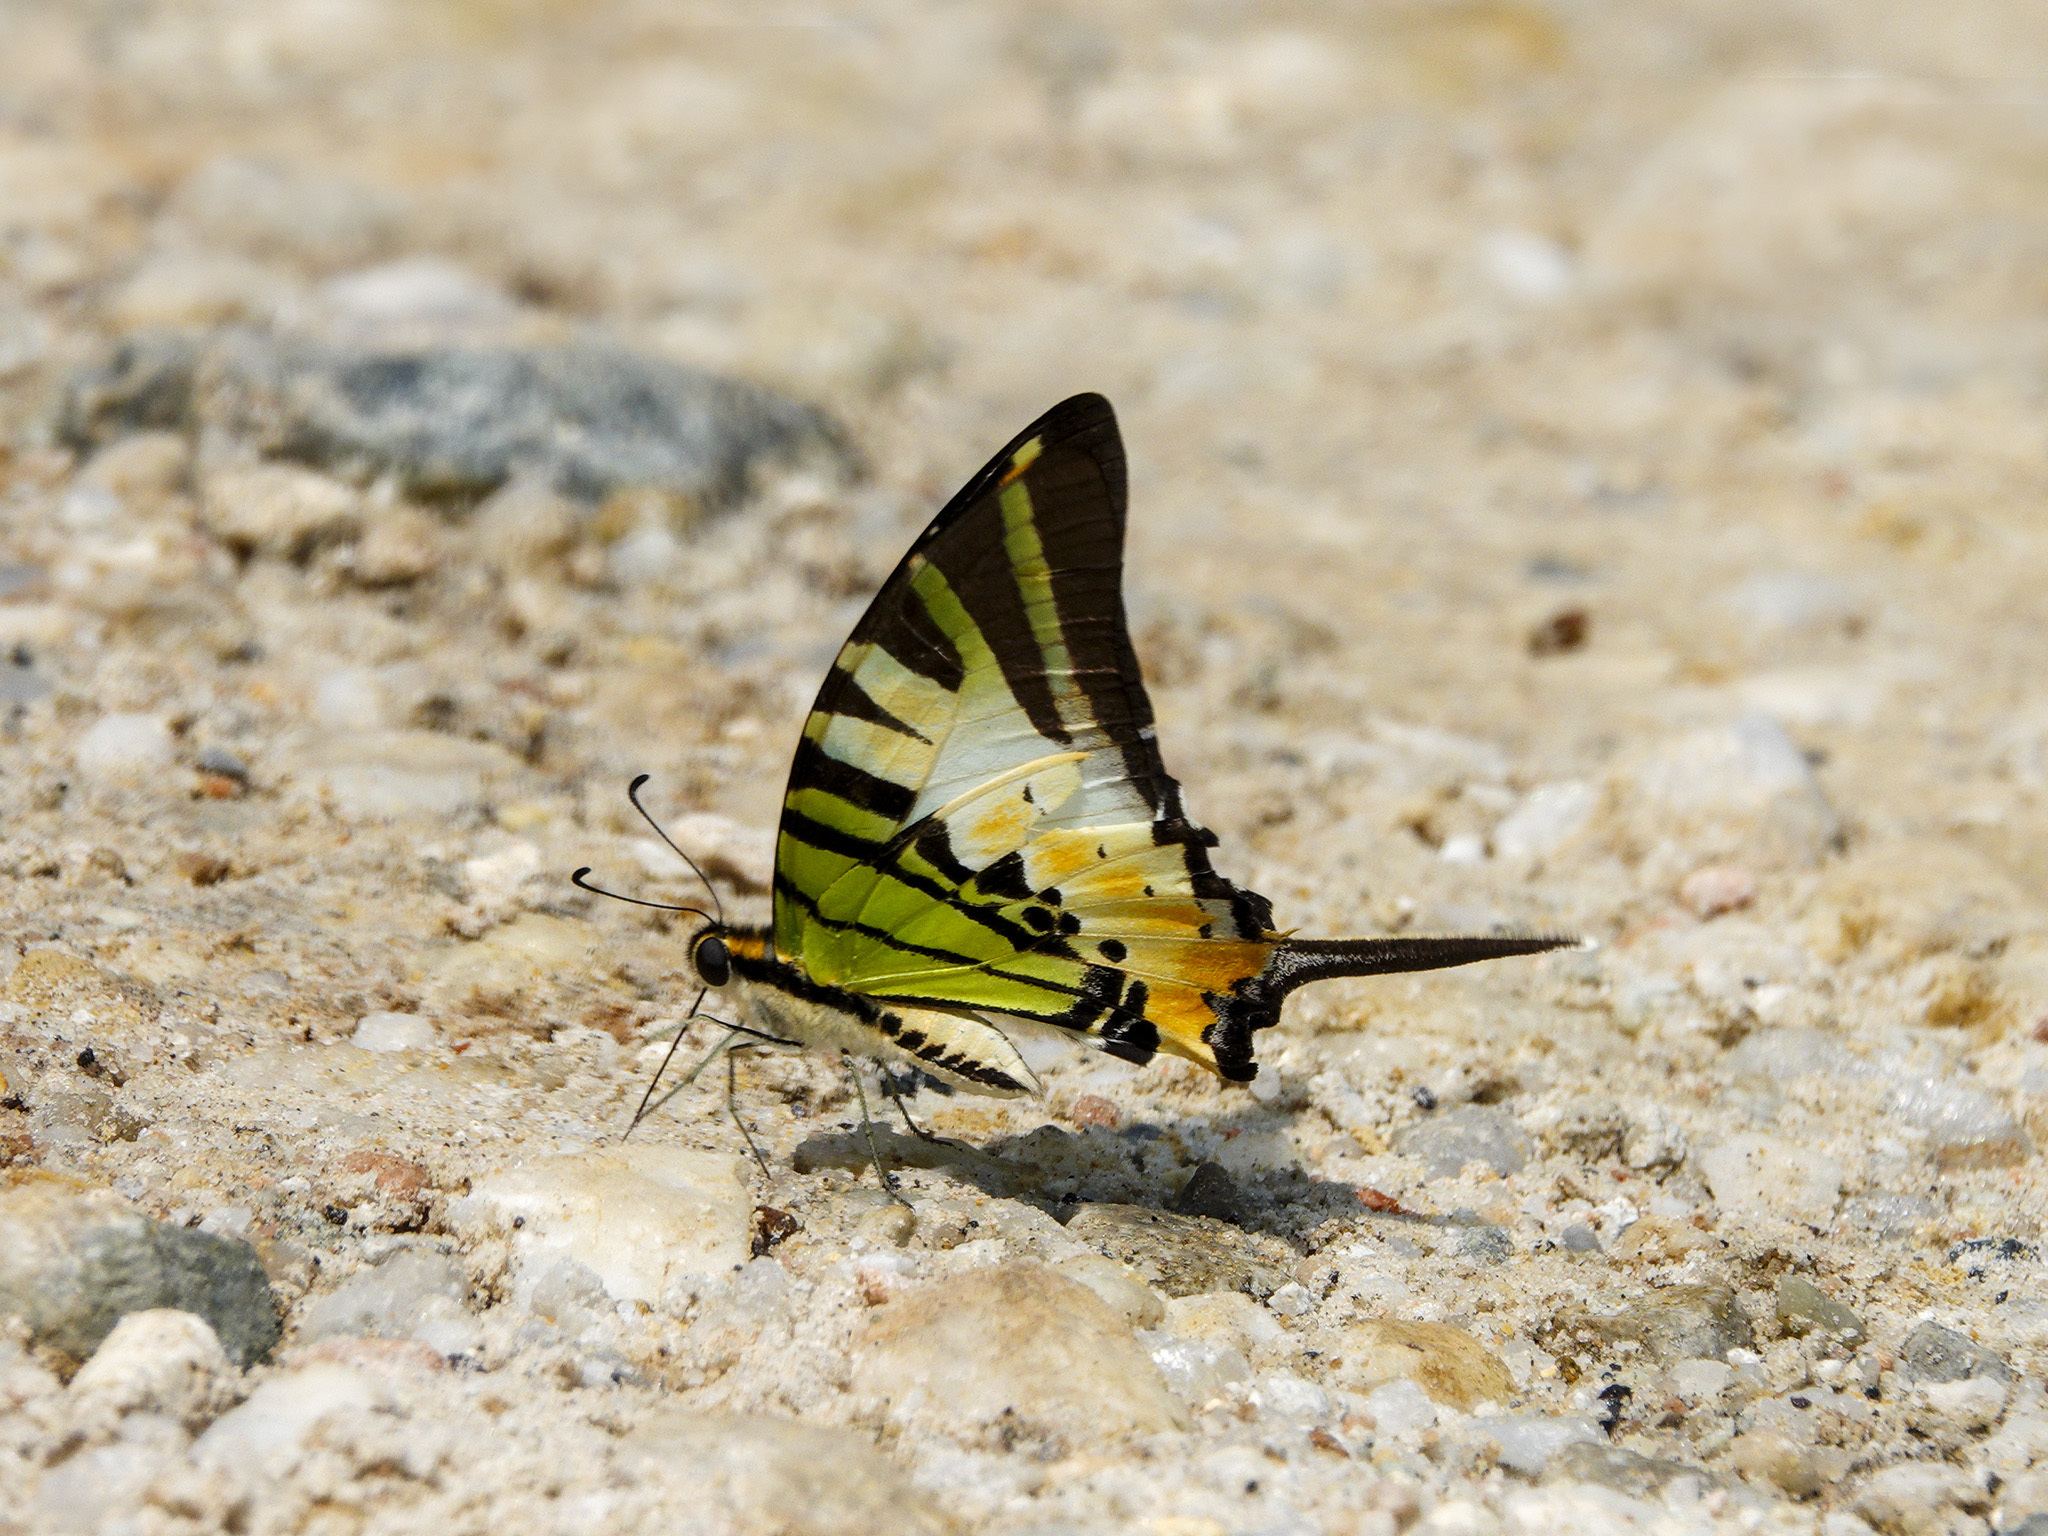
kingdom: Animalia
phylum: Arthropoda
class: Insecta
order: Lepidoptera
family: Papilionidae
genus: Graphium
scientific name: Graphium antiphates
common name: Fivebar swordtail
